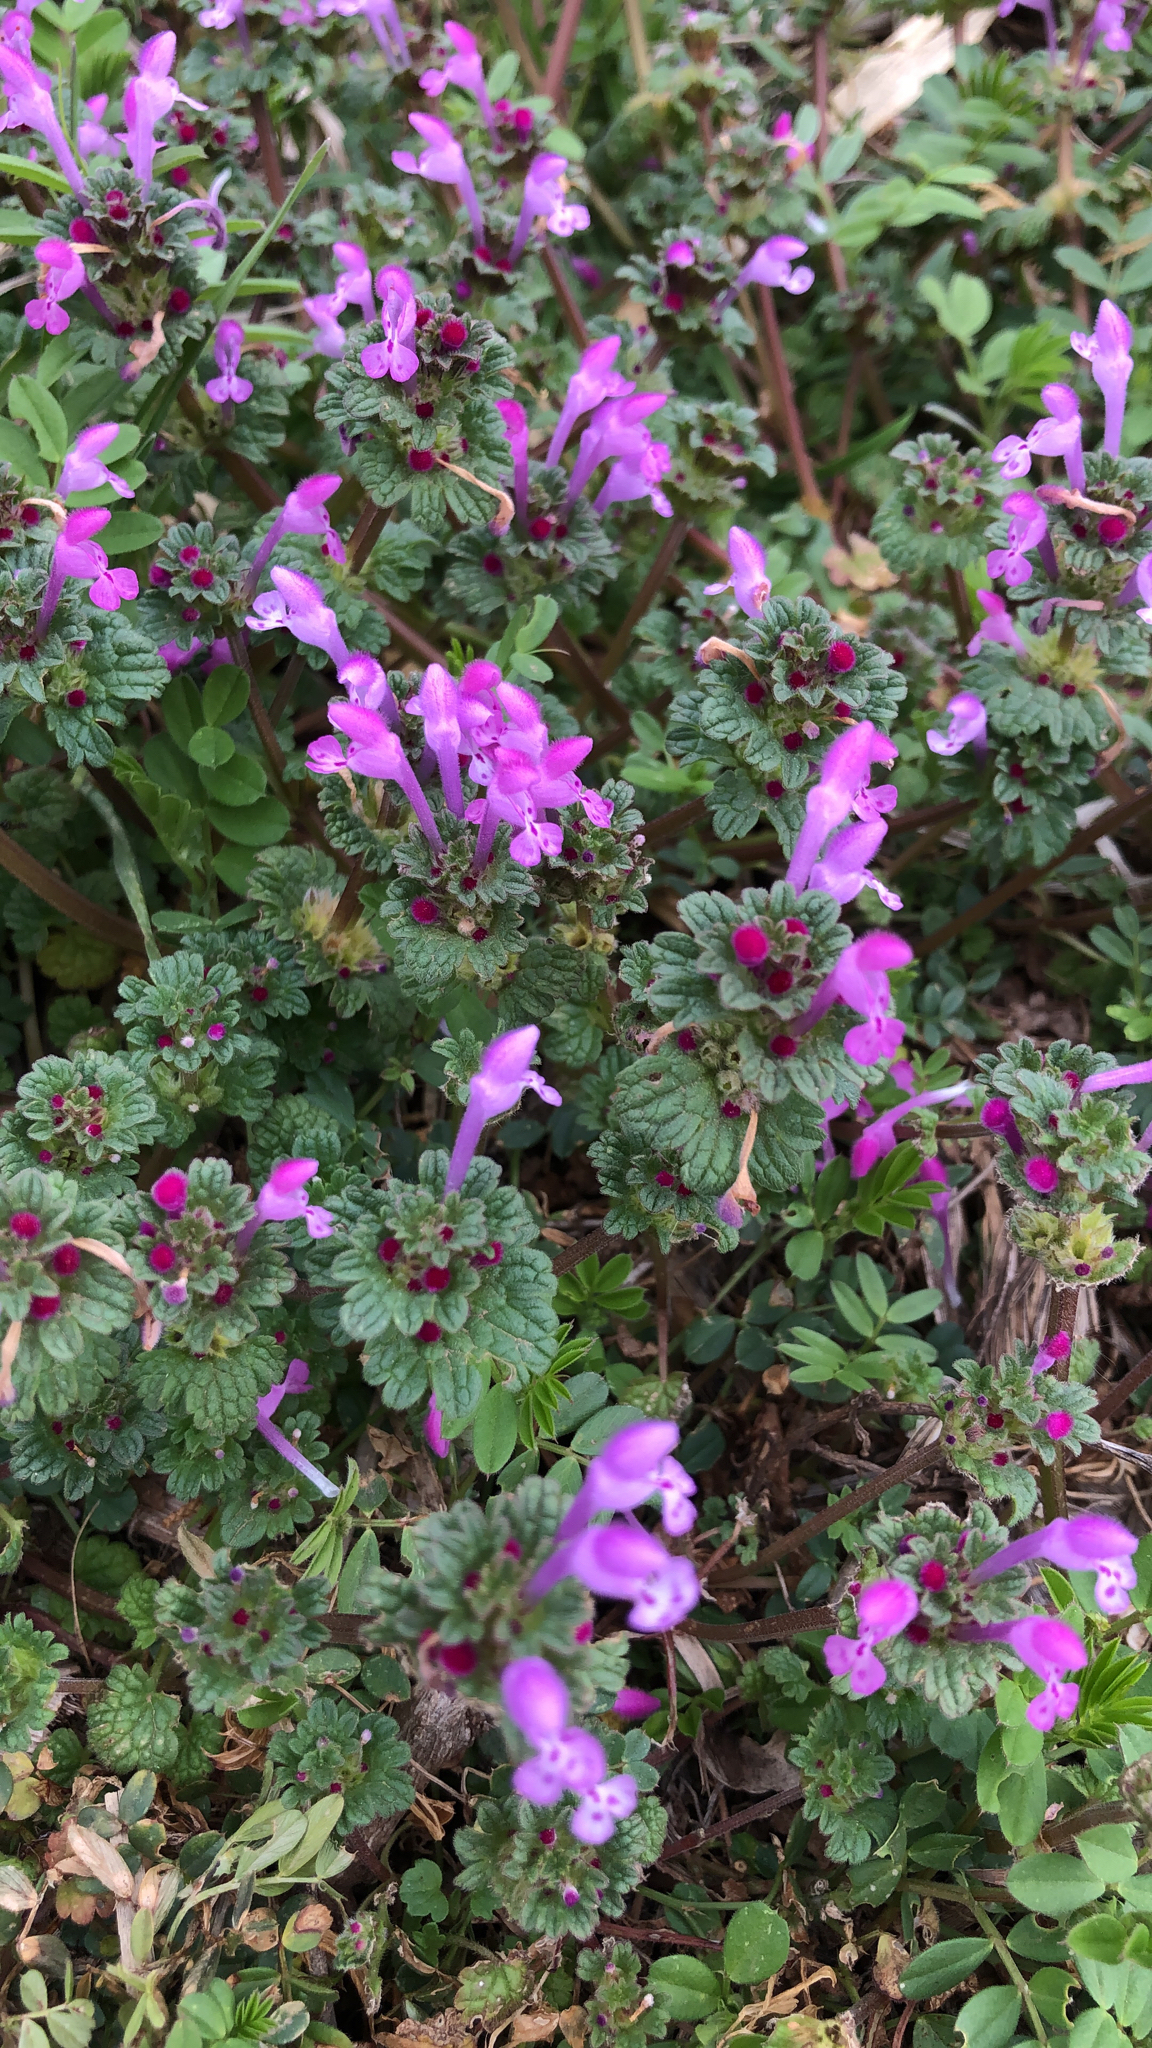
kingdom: Plantae
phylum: Tracheophyta
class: Magnoliopsida
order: Lamiales
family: Lamiaceae
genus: Lamium
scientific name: Lamium amplexicaule
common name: Henbit dead-nettle
